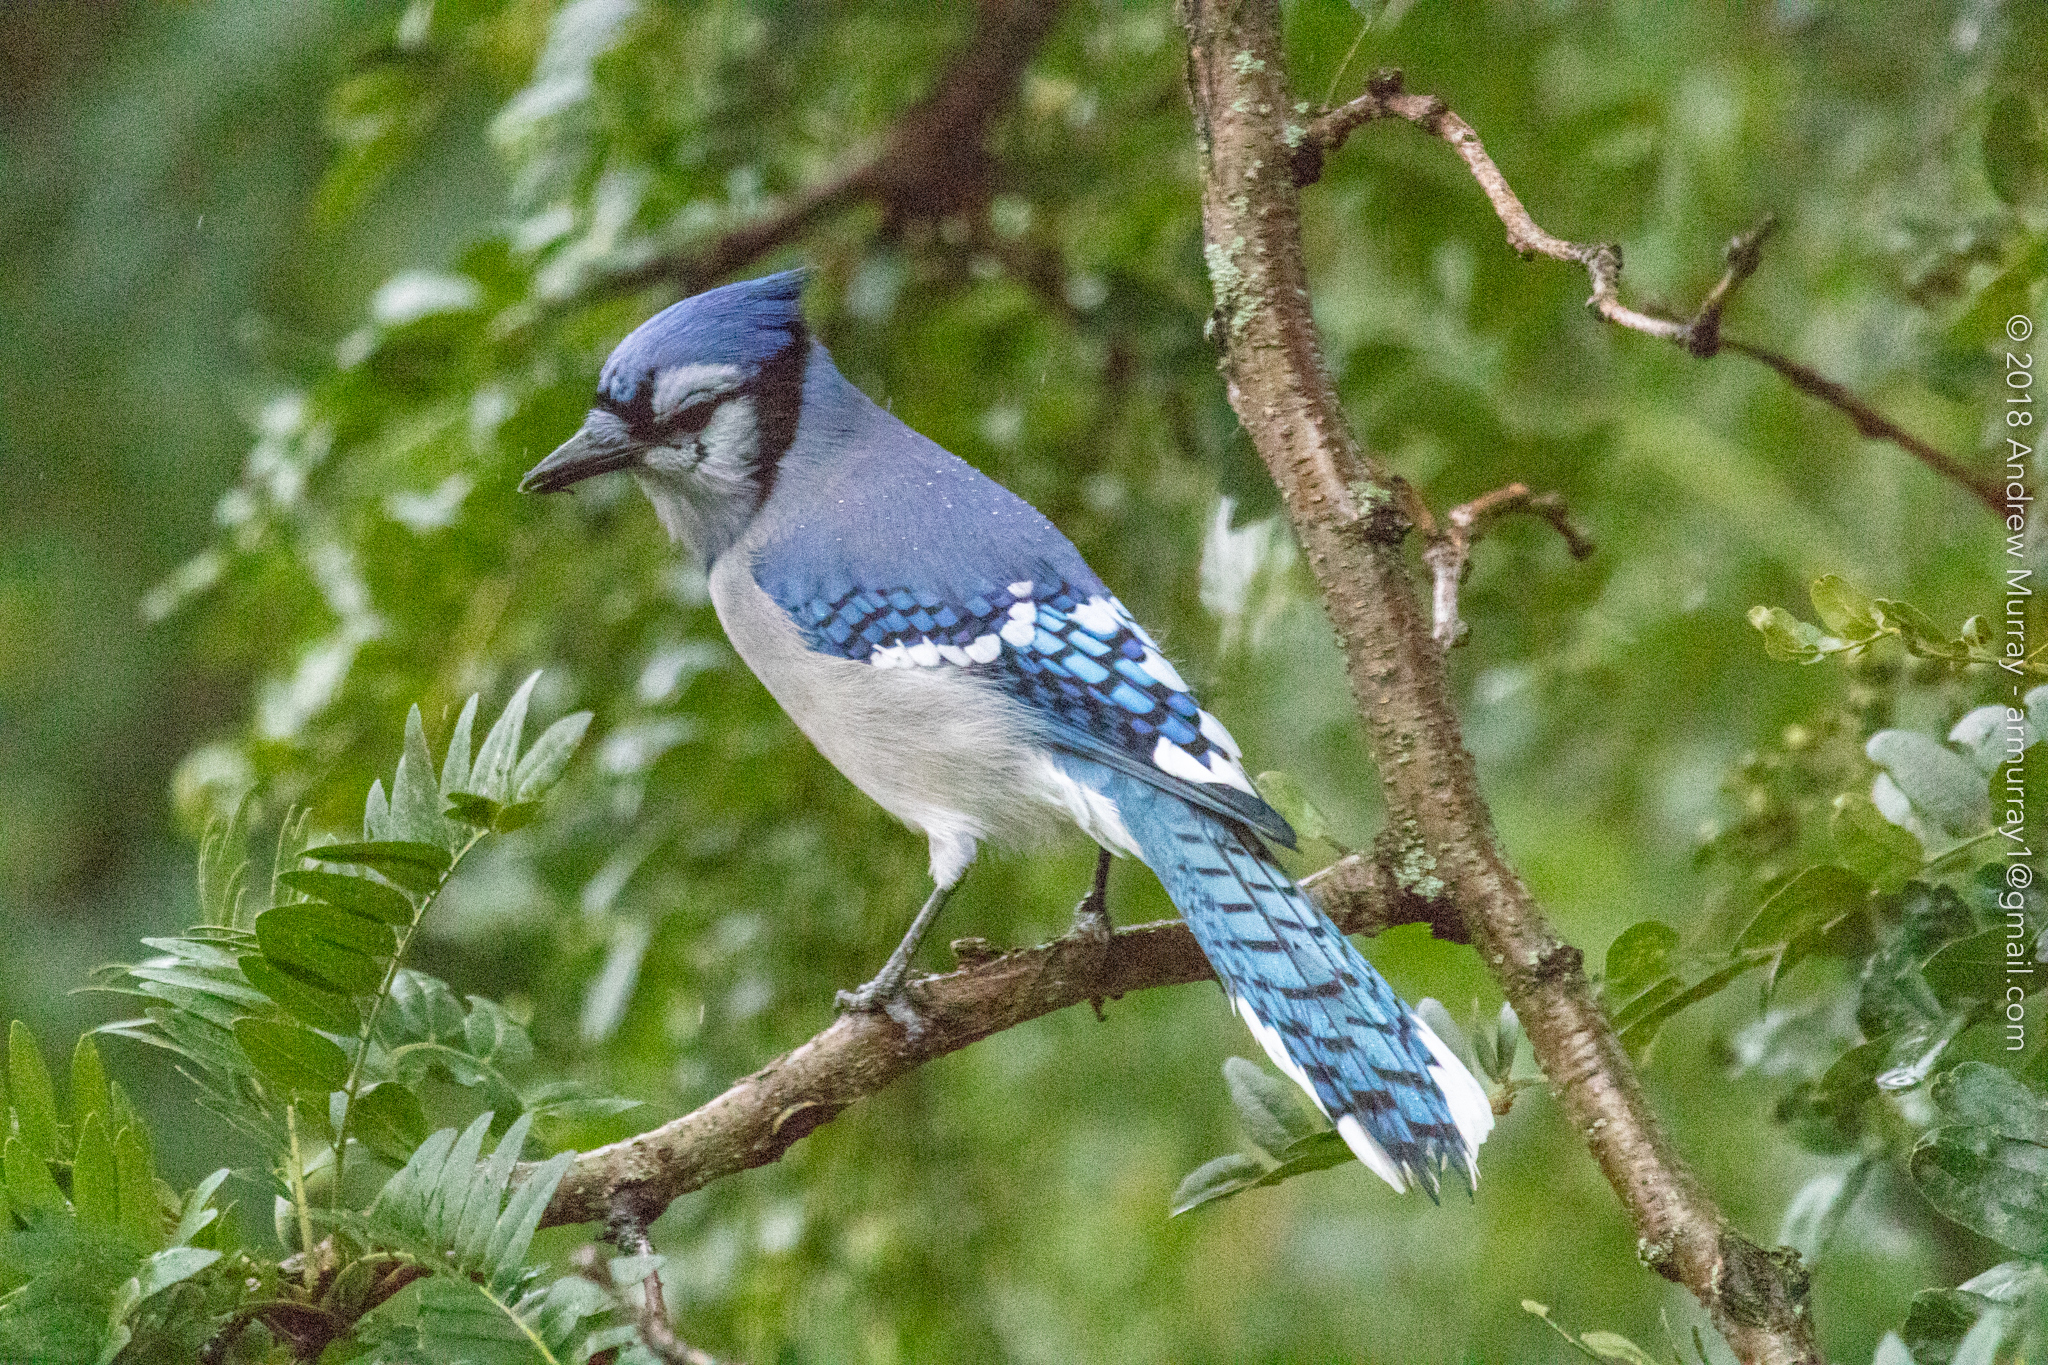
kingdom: Animalia
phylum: Chordata
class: Aves
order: Passeriformes
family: Corvidae
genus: Cyanocitta
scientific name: Cyanocitta cristata
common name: Blue jay
